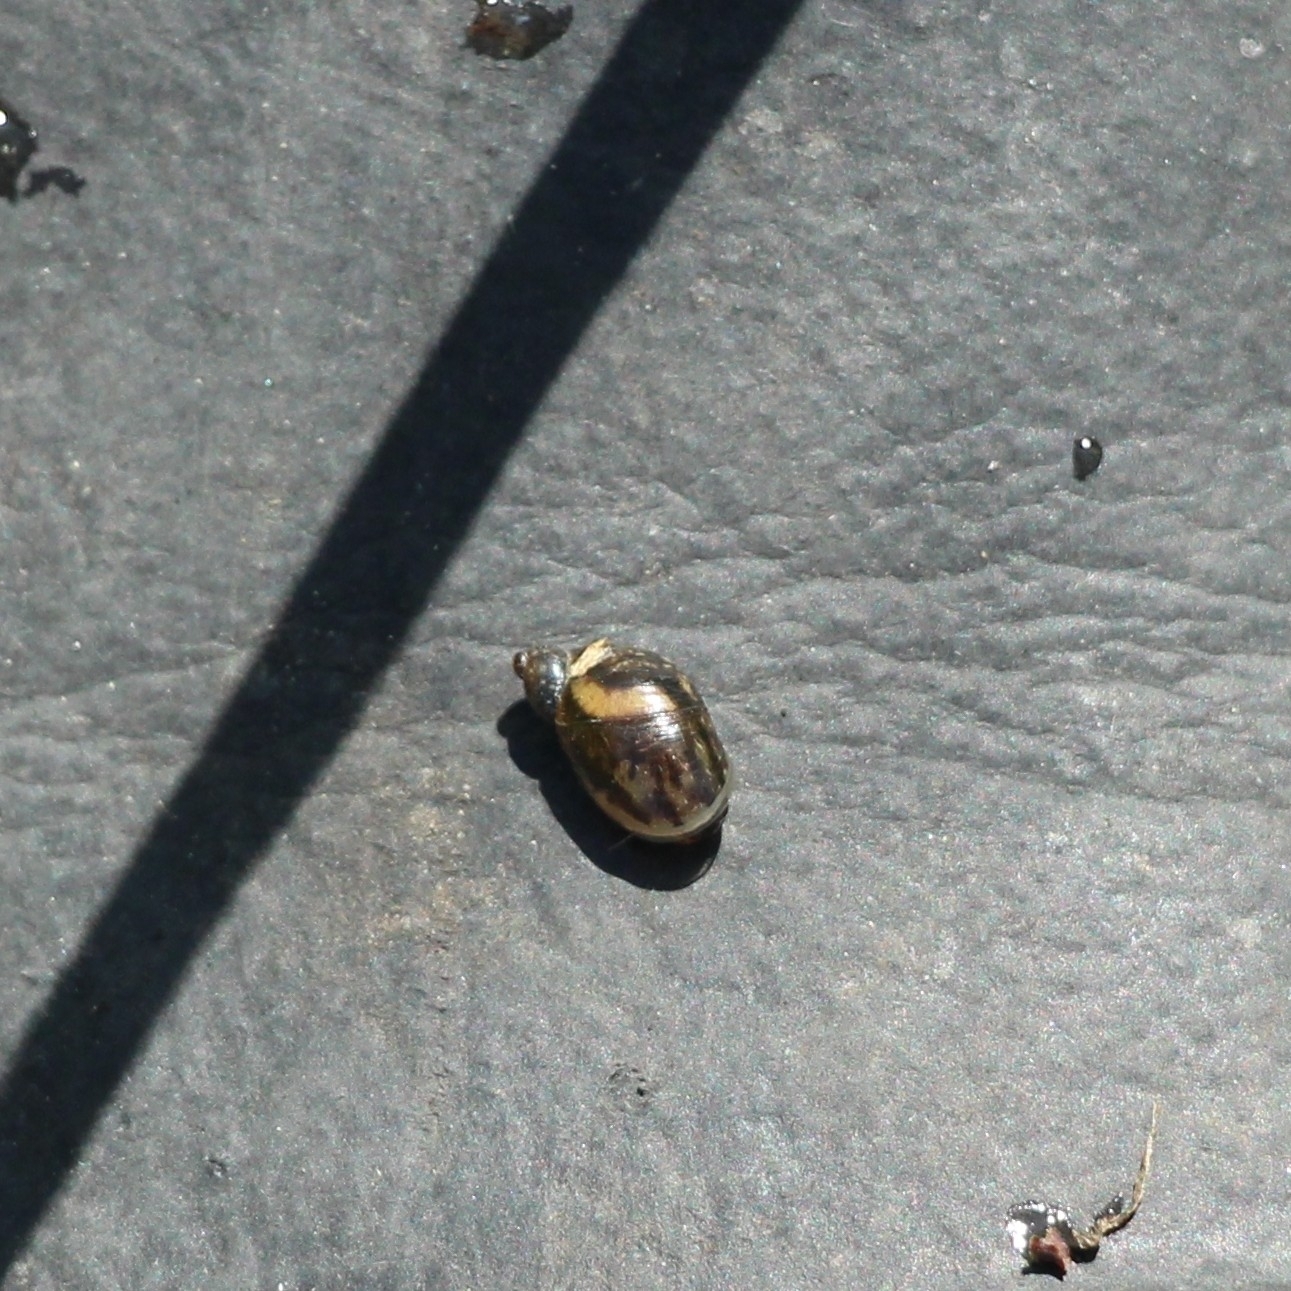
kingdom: Animalia
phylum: Mollusca
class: Gastropoda
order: Stylommatophora
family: Succineidae
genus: Succinea
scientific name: Succinea putris
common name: European ambersnail
